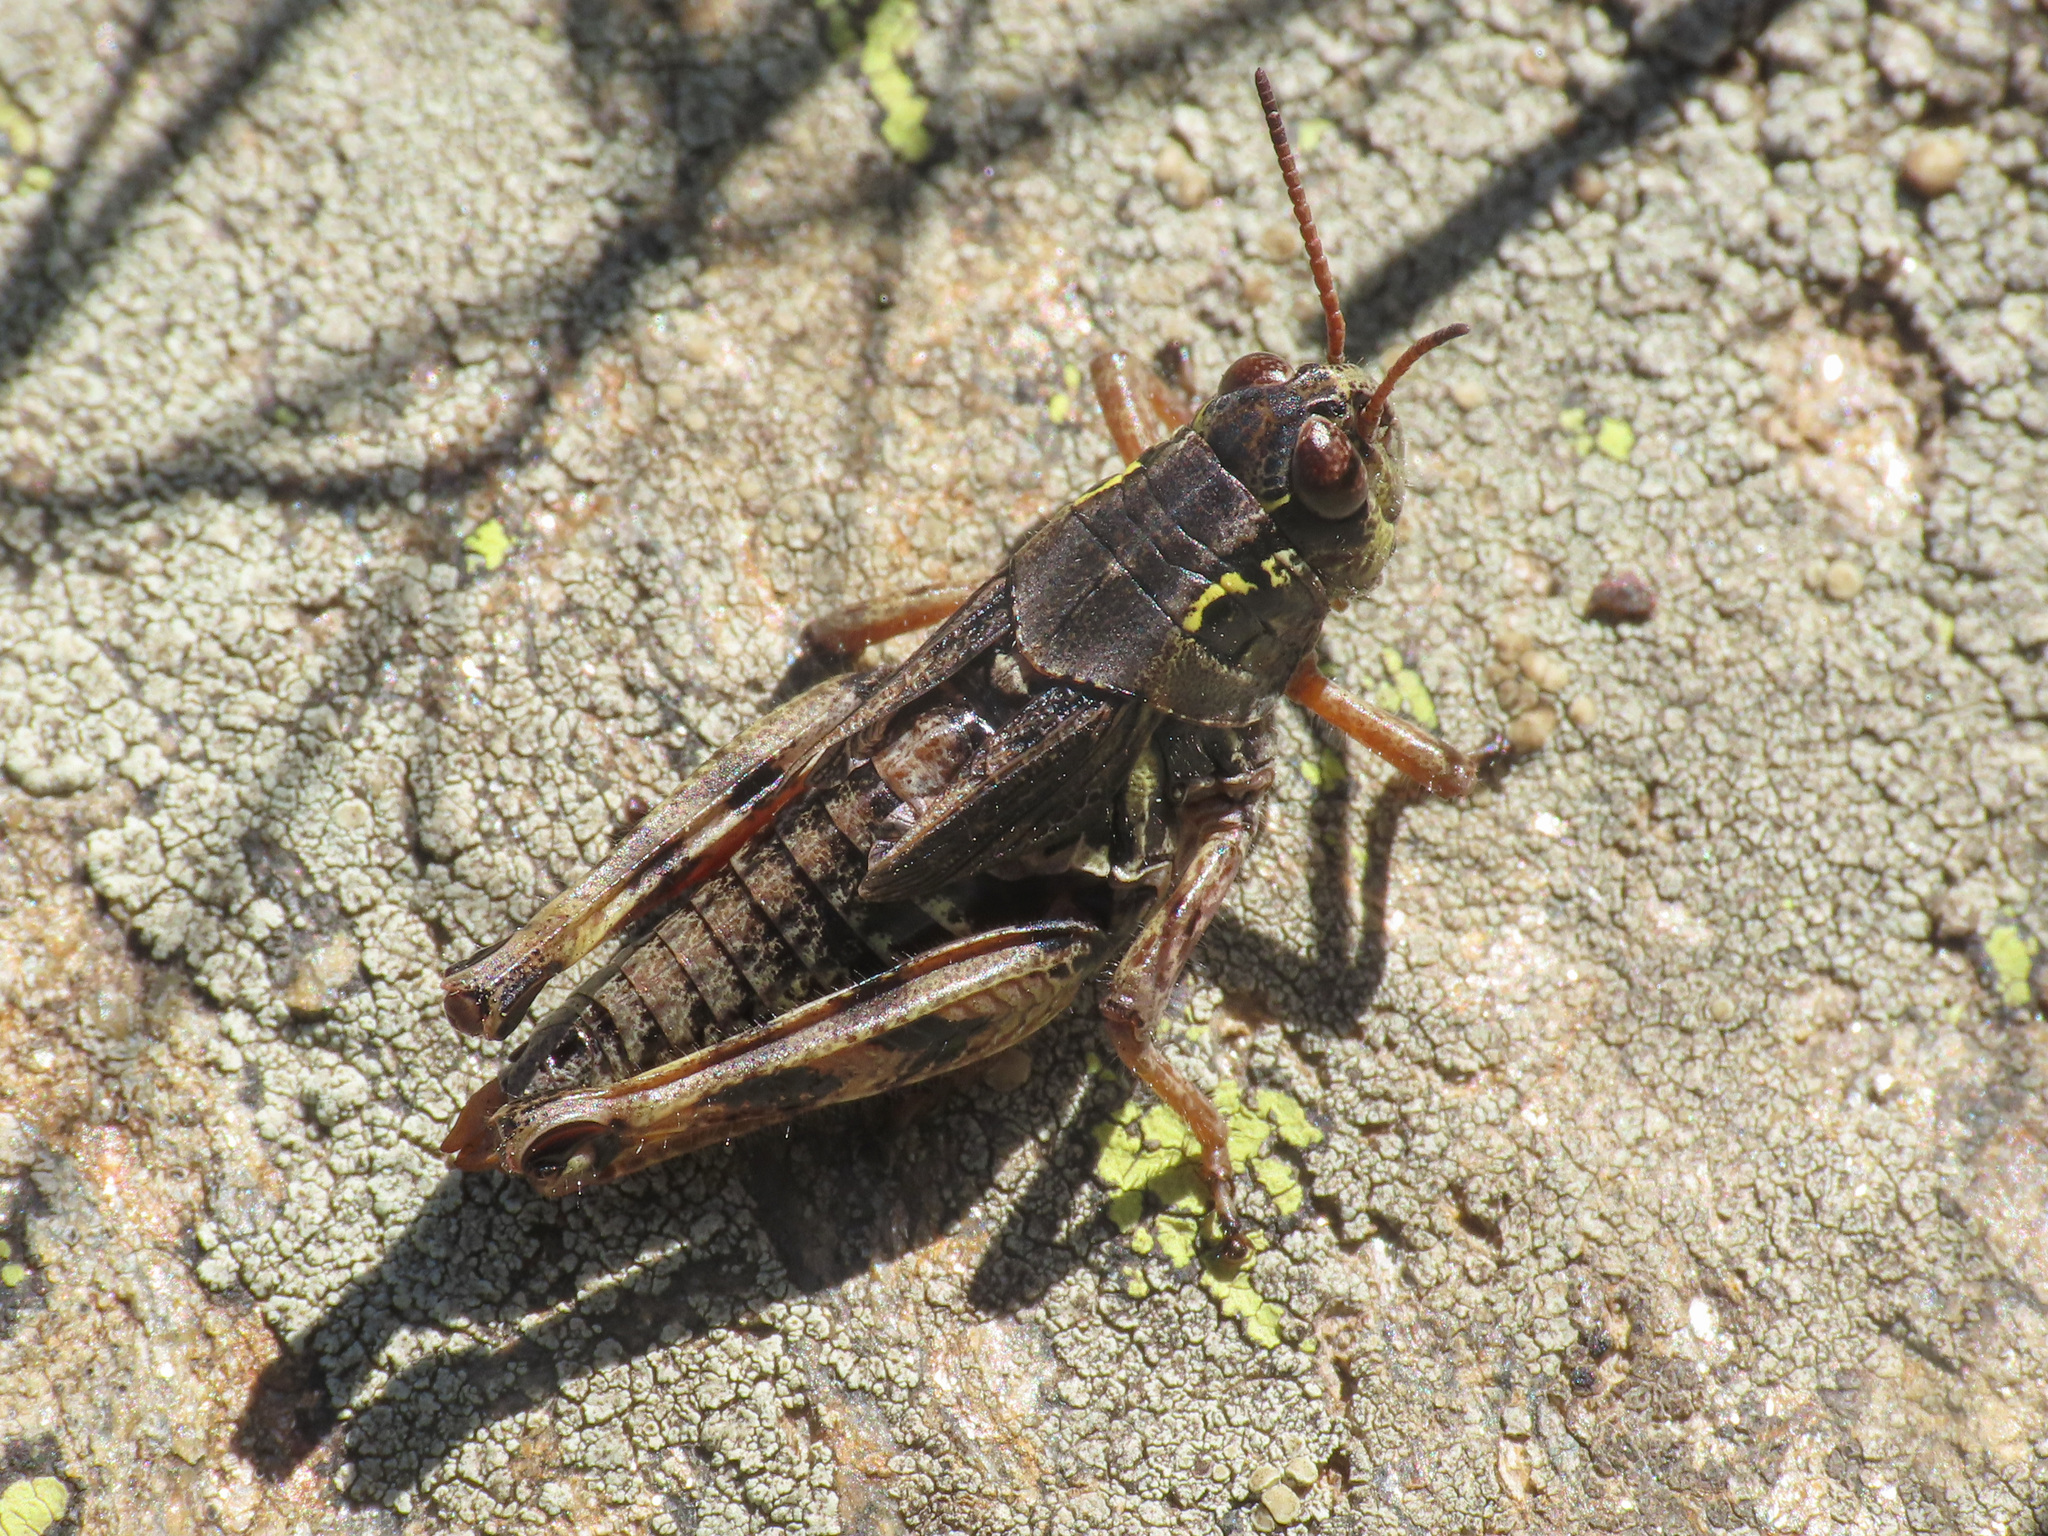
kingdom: Animalia
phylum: Arthropoda
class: Insecta
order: Orthoptera
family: Acrididae
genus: Bohemanella
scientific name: Bohemanella frigida
